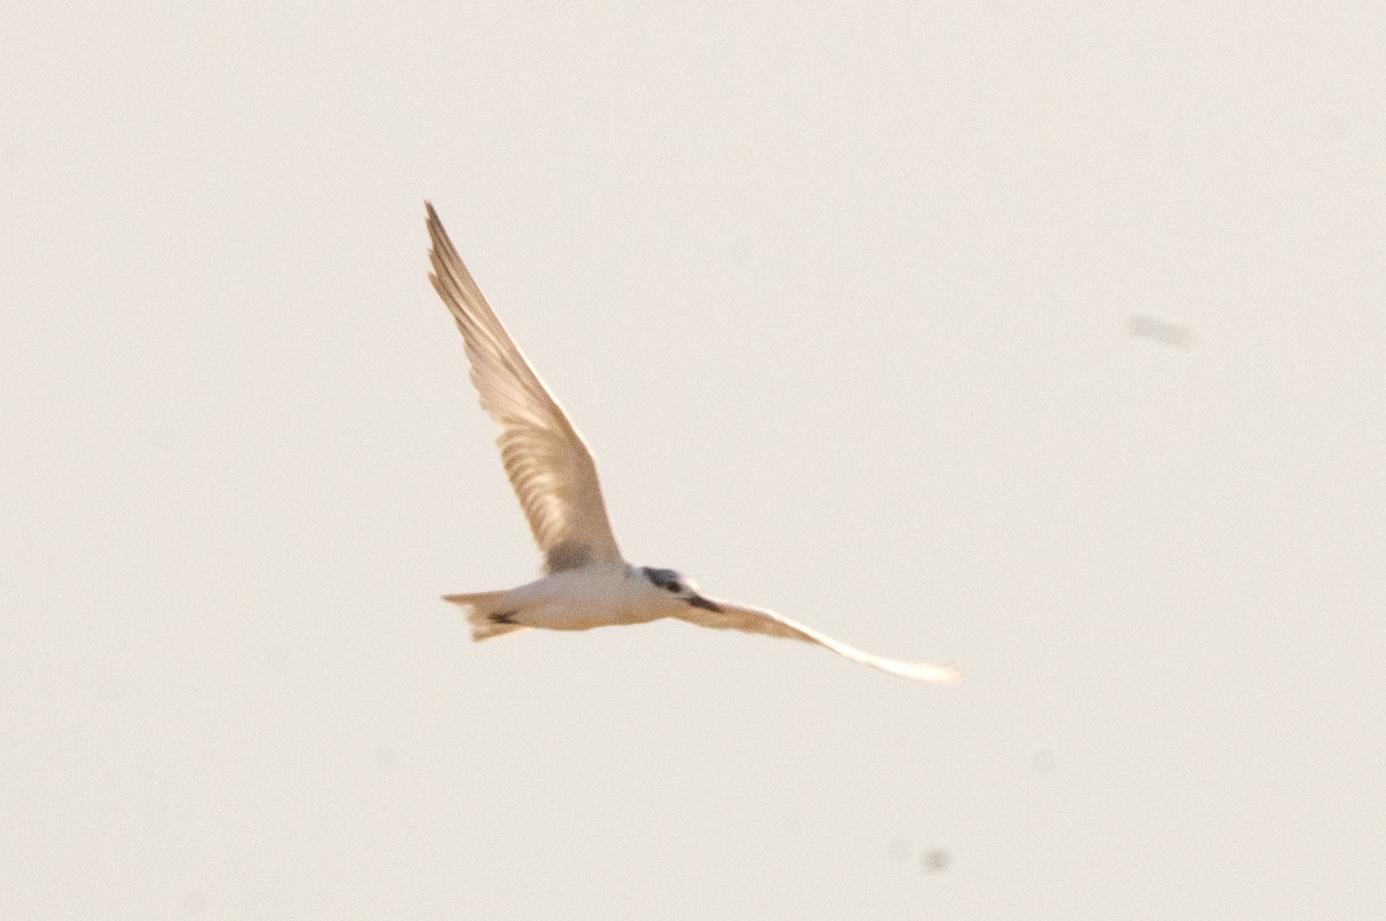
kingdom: Animalia
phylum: Chordata
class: Aves
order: Charadriiformes
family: Laridae
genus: Chlidonias
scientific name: Chlidonias hybrida
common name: Whiskered tern
